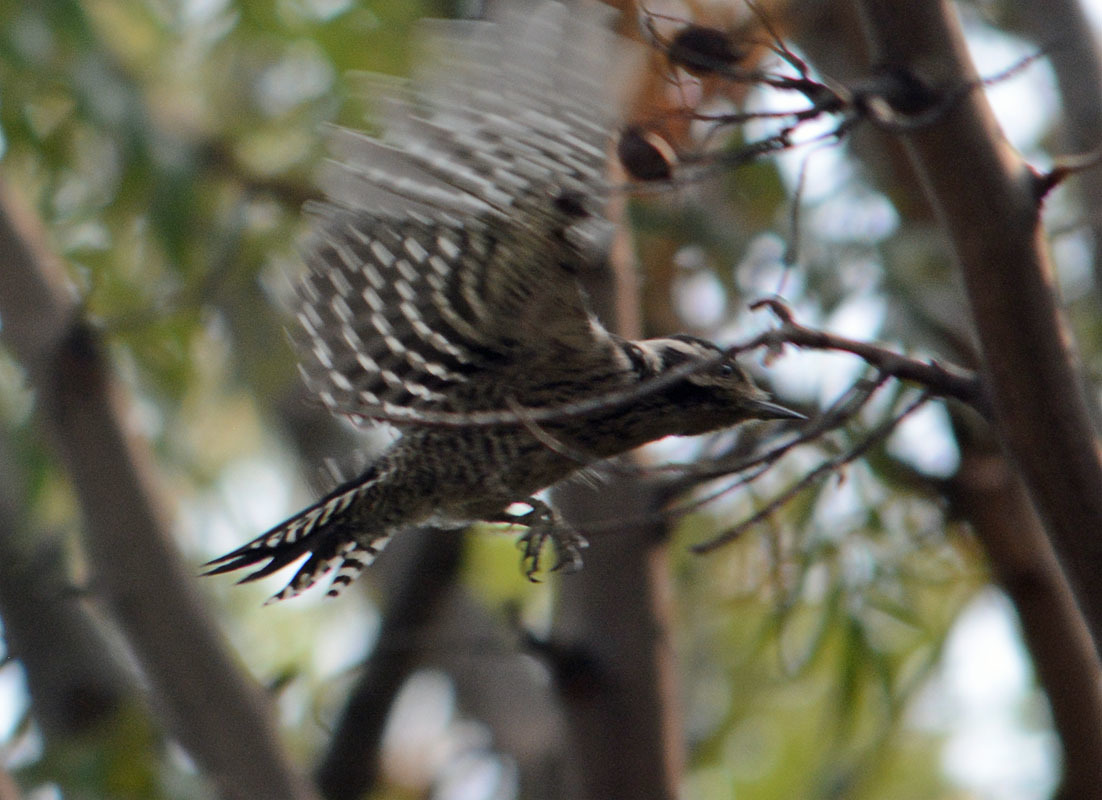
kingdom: Animalia
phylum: Chordata
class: Aves
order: Piciformes
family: Picidae
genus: Dryobates
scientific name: Dryobates scalaris
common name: Ladder-backed woodpecker
